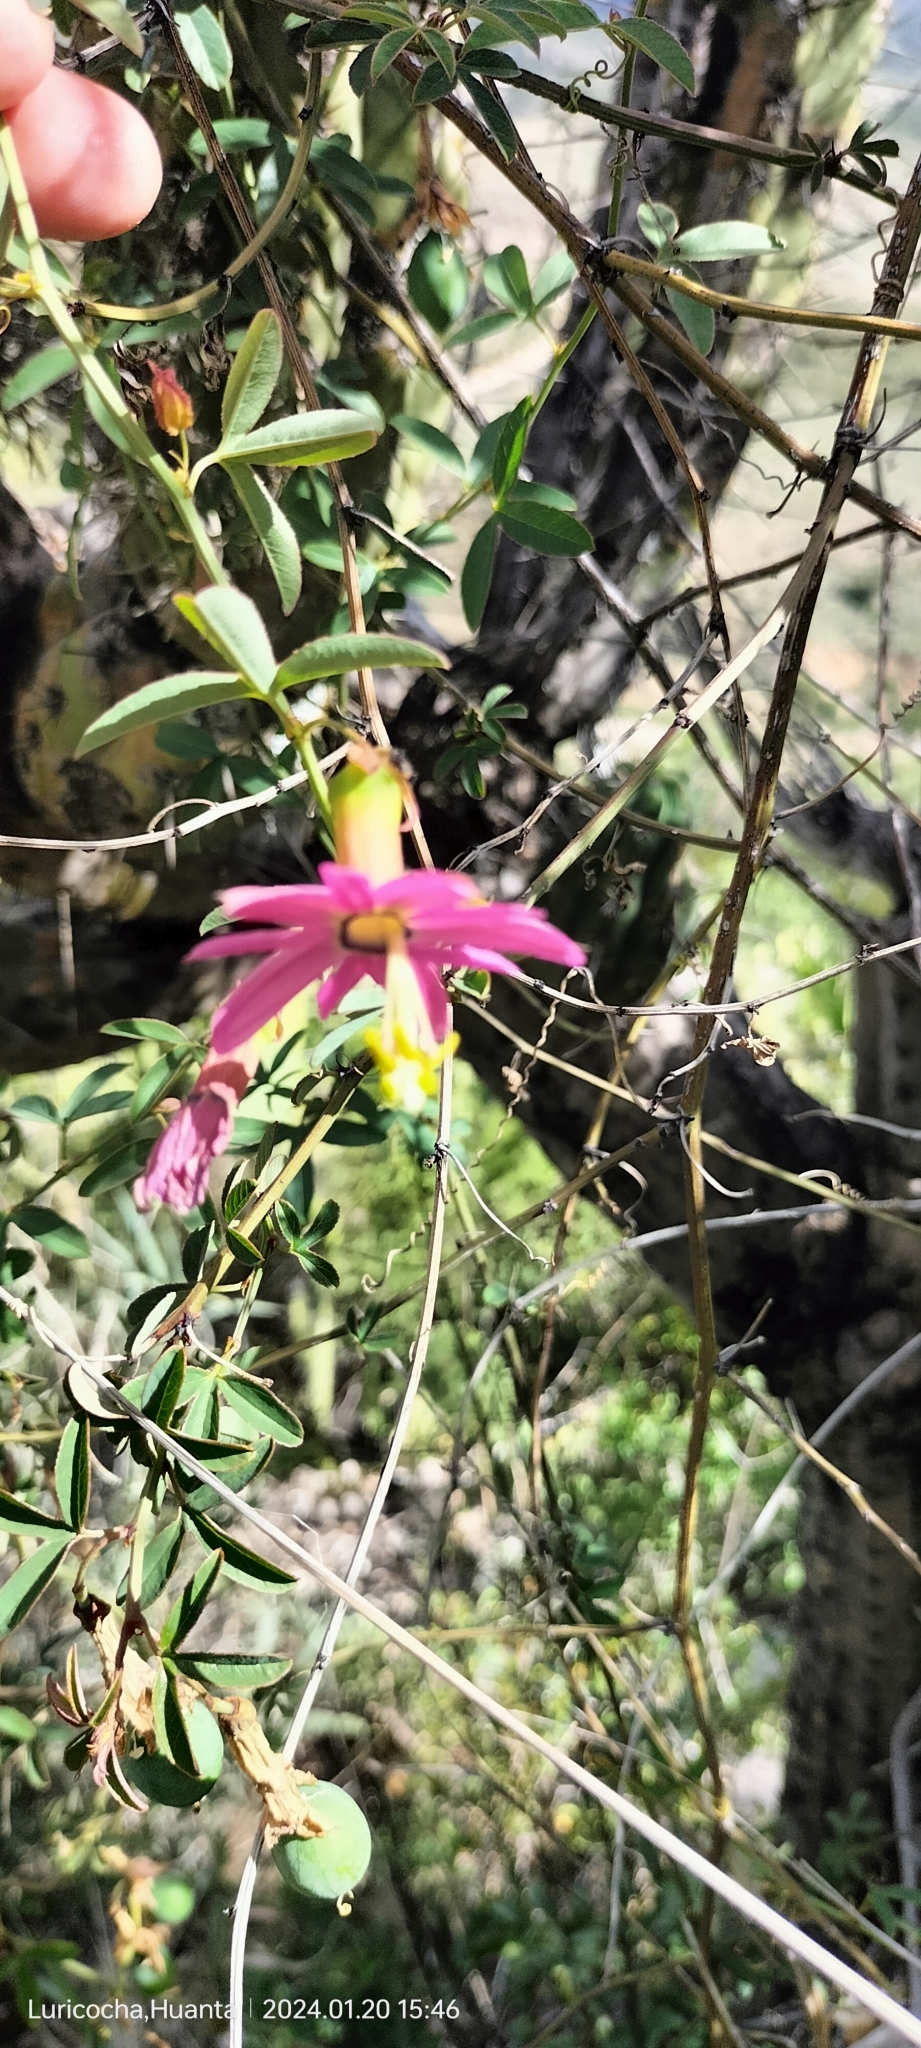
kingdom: Plantae
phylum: Tracheophyta
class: Magnoliopsida
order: Malpighiales
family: Passifloraceae
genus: Passiflora
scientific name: Passiflora gracilens
